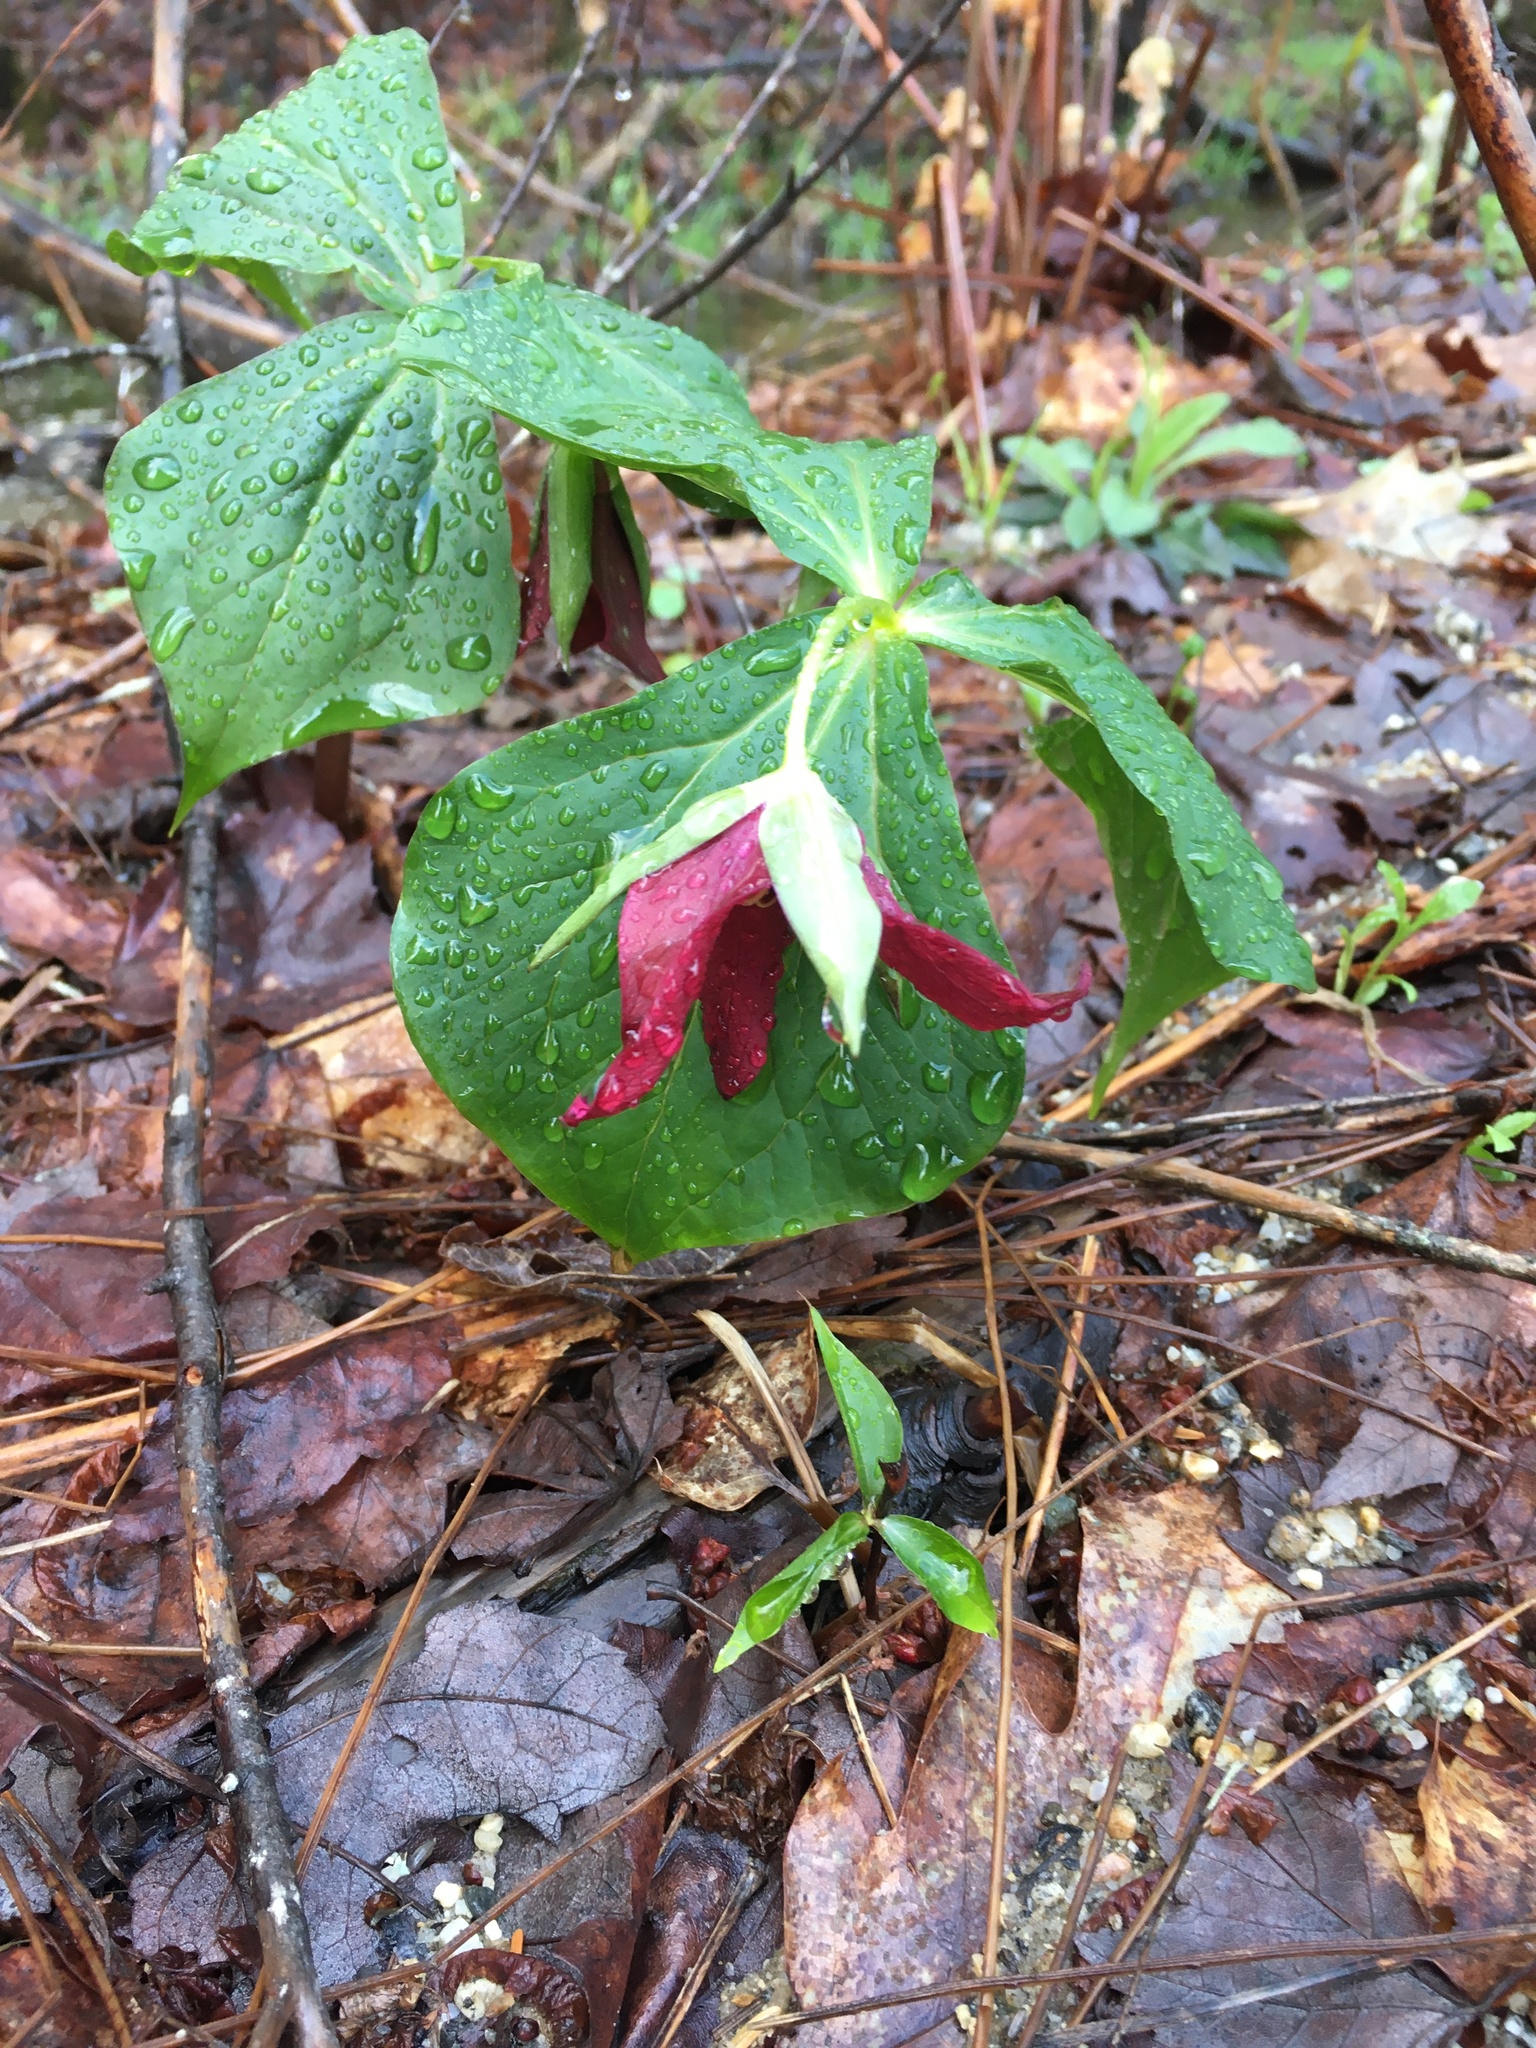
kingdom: Plantae
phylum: Tracheophyta
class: Liliopsida
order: Liliales
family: Melanthiaceae
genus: Trillium
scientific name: Trillium erectum
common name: Purple trillium
